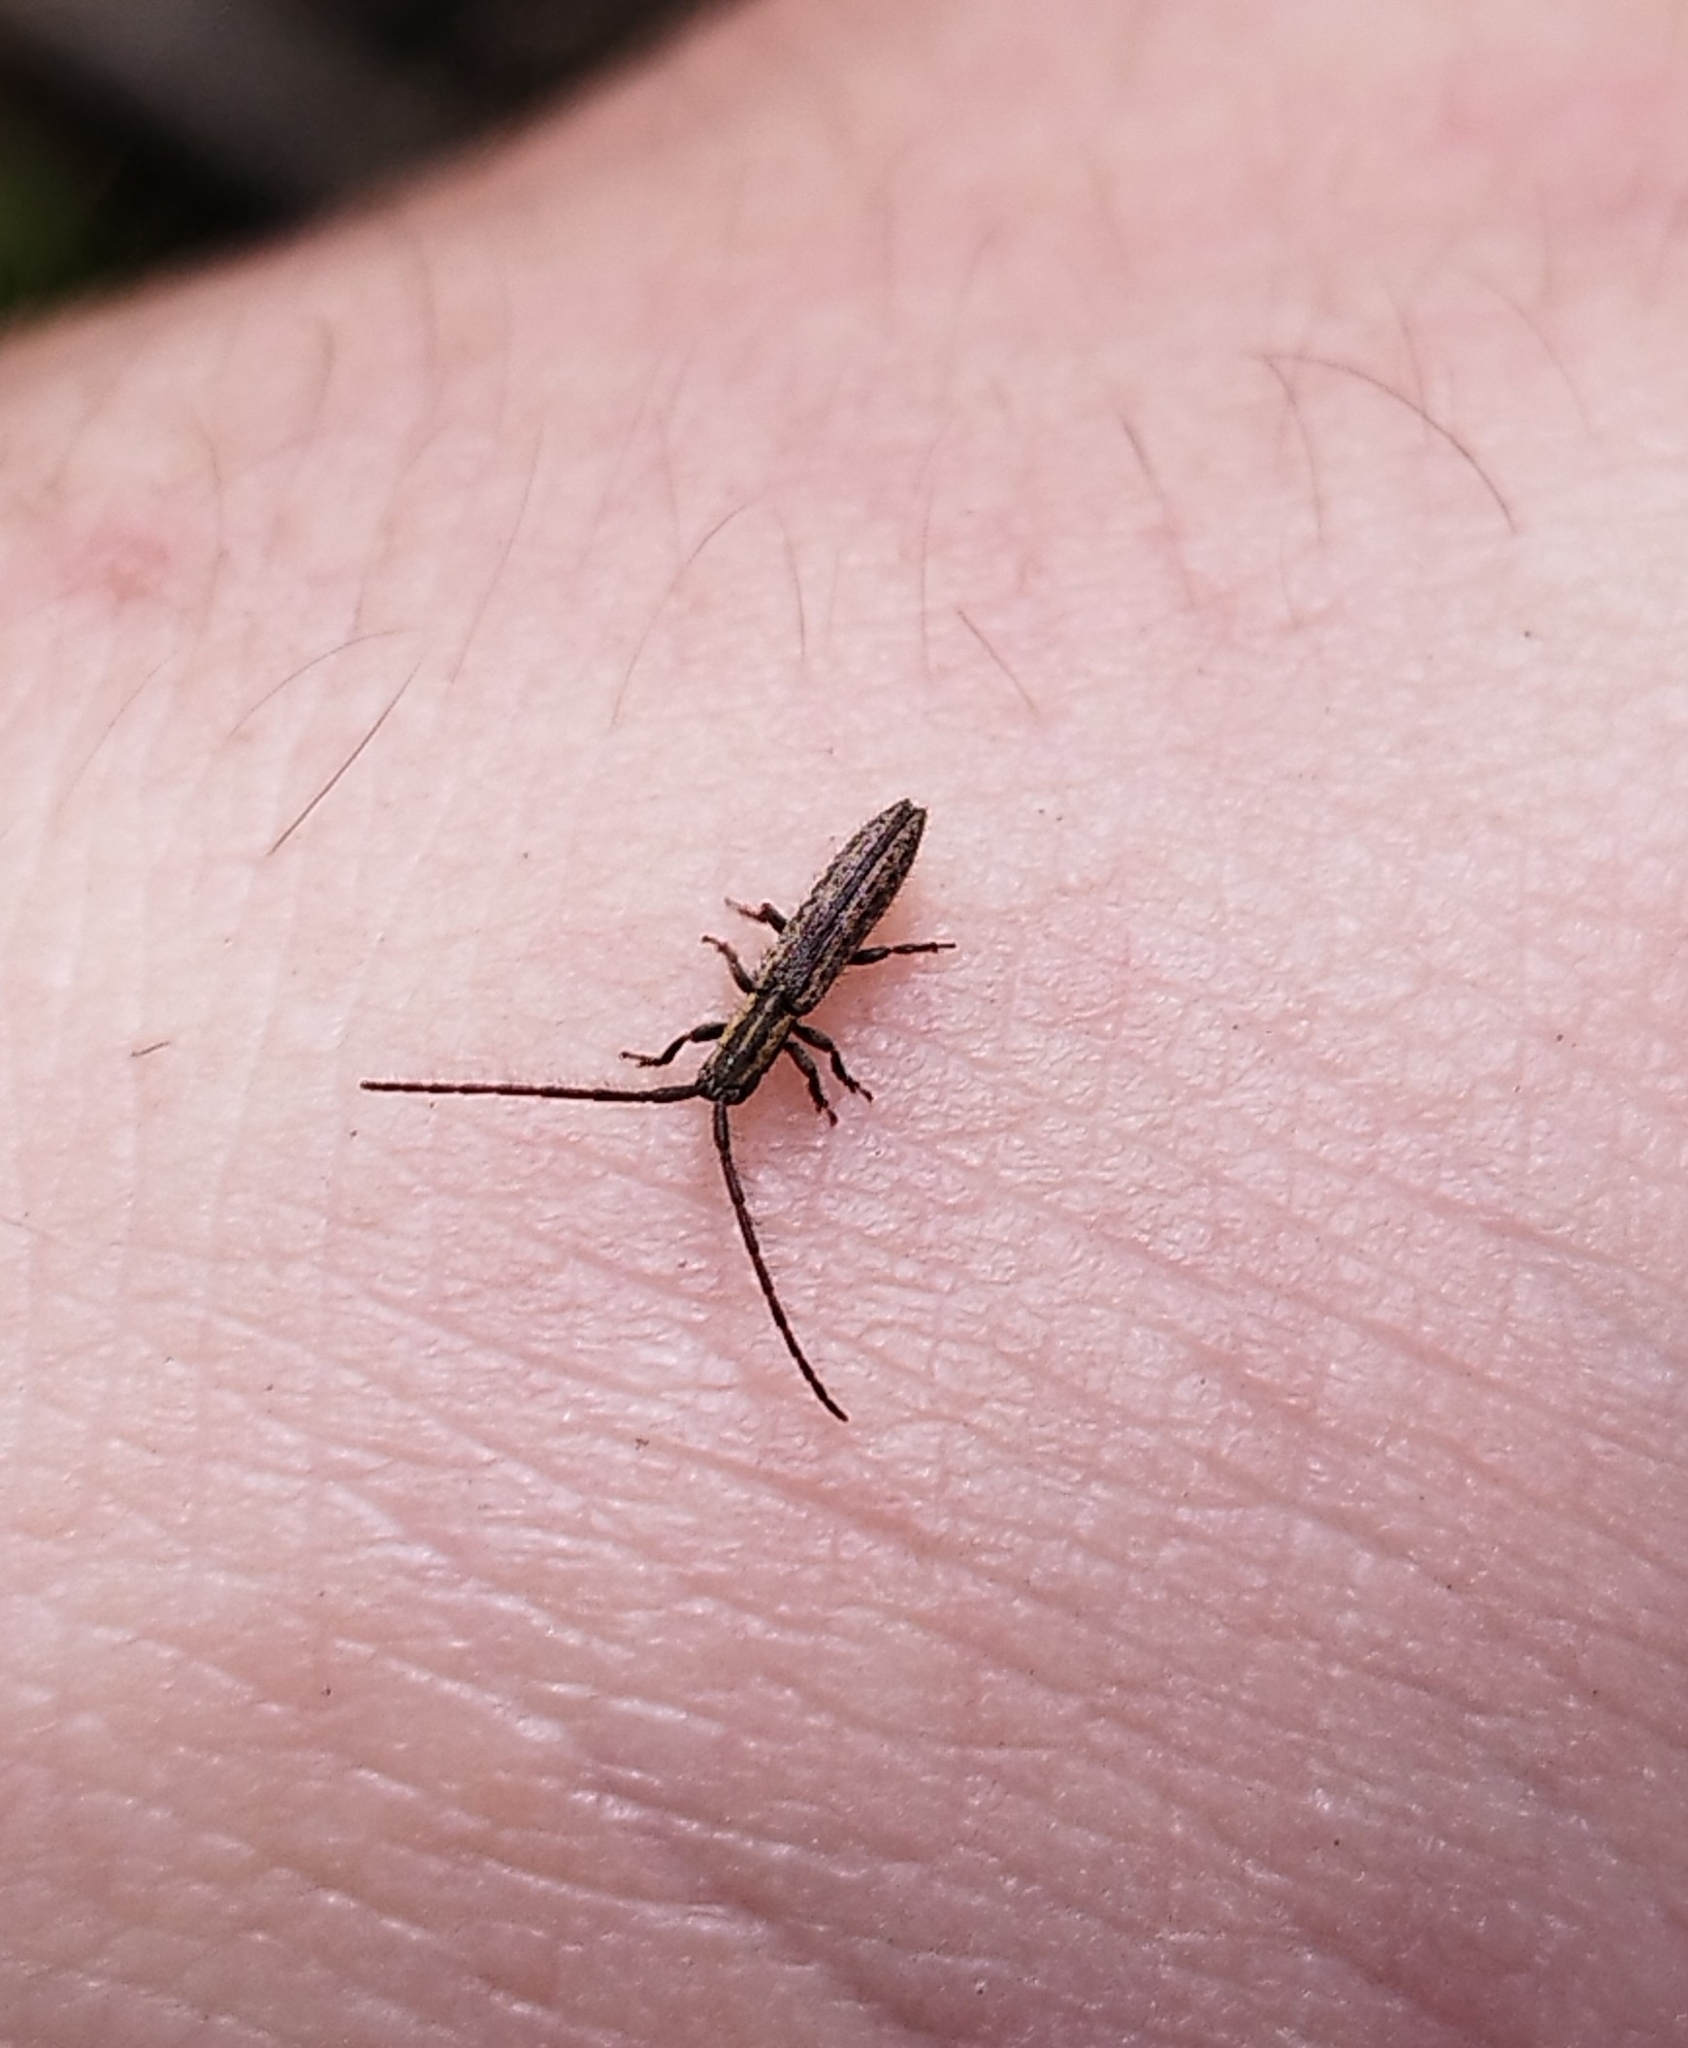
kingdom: Animalia
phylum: Arthropoda
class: Insecta
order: Coleoptera
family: Cerambycidae
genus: Dorcasta
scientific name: Dorcasta implicata
